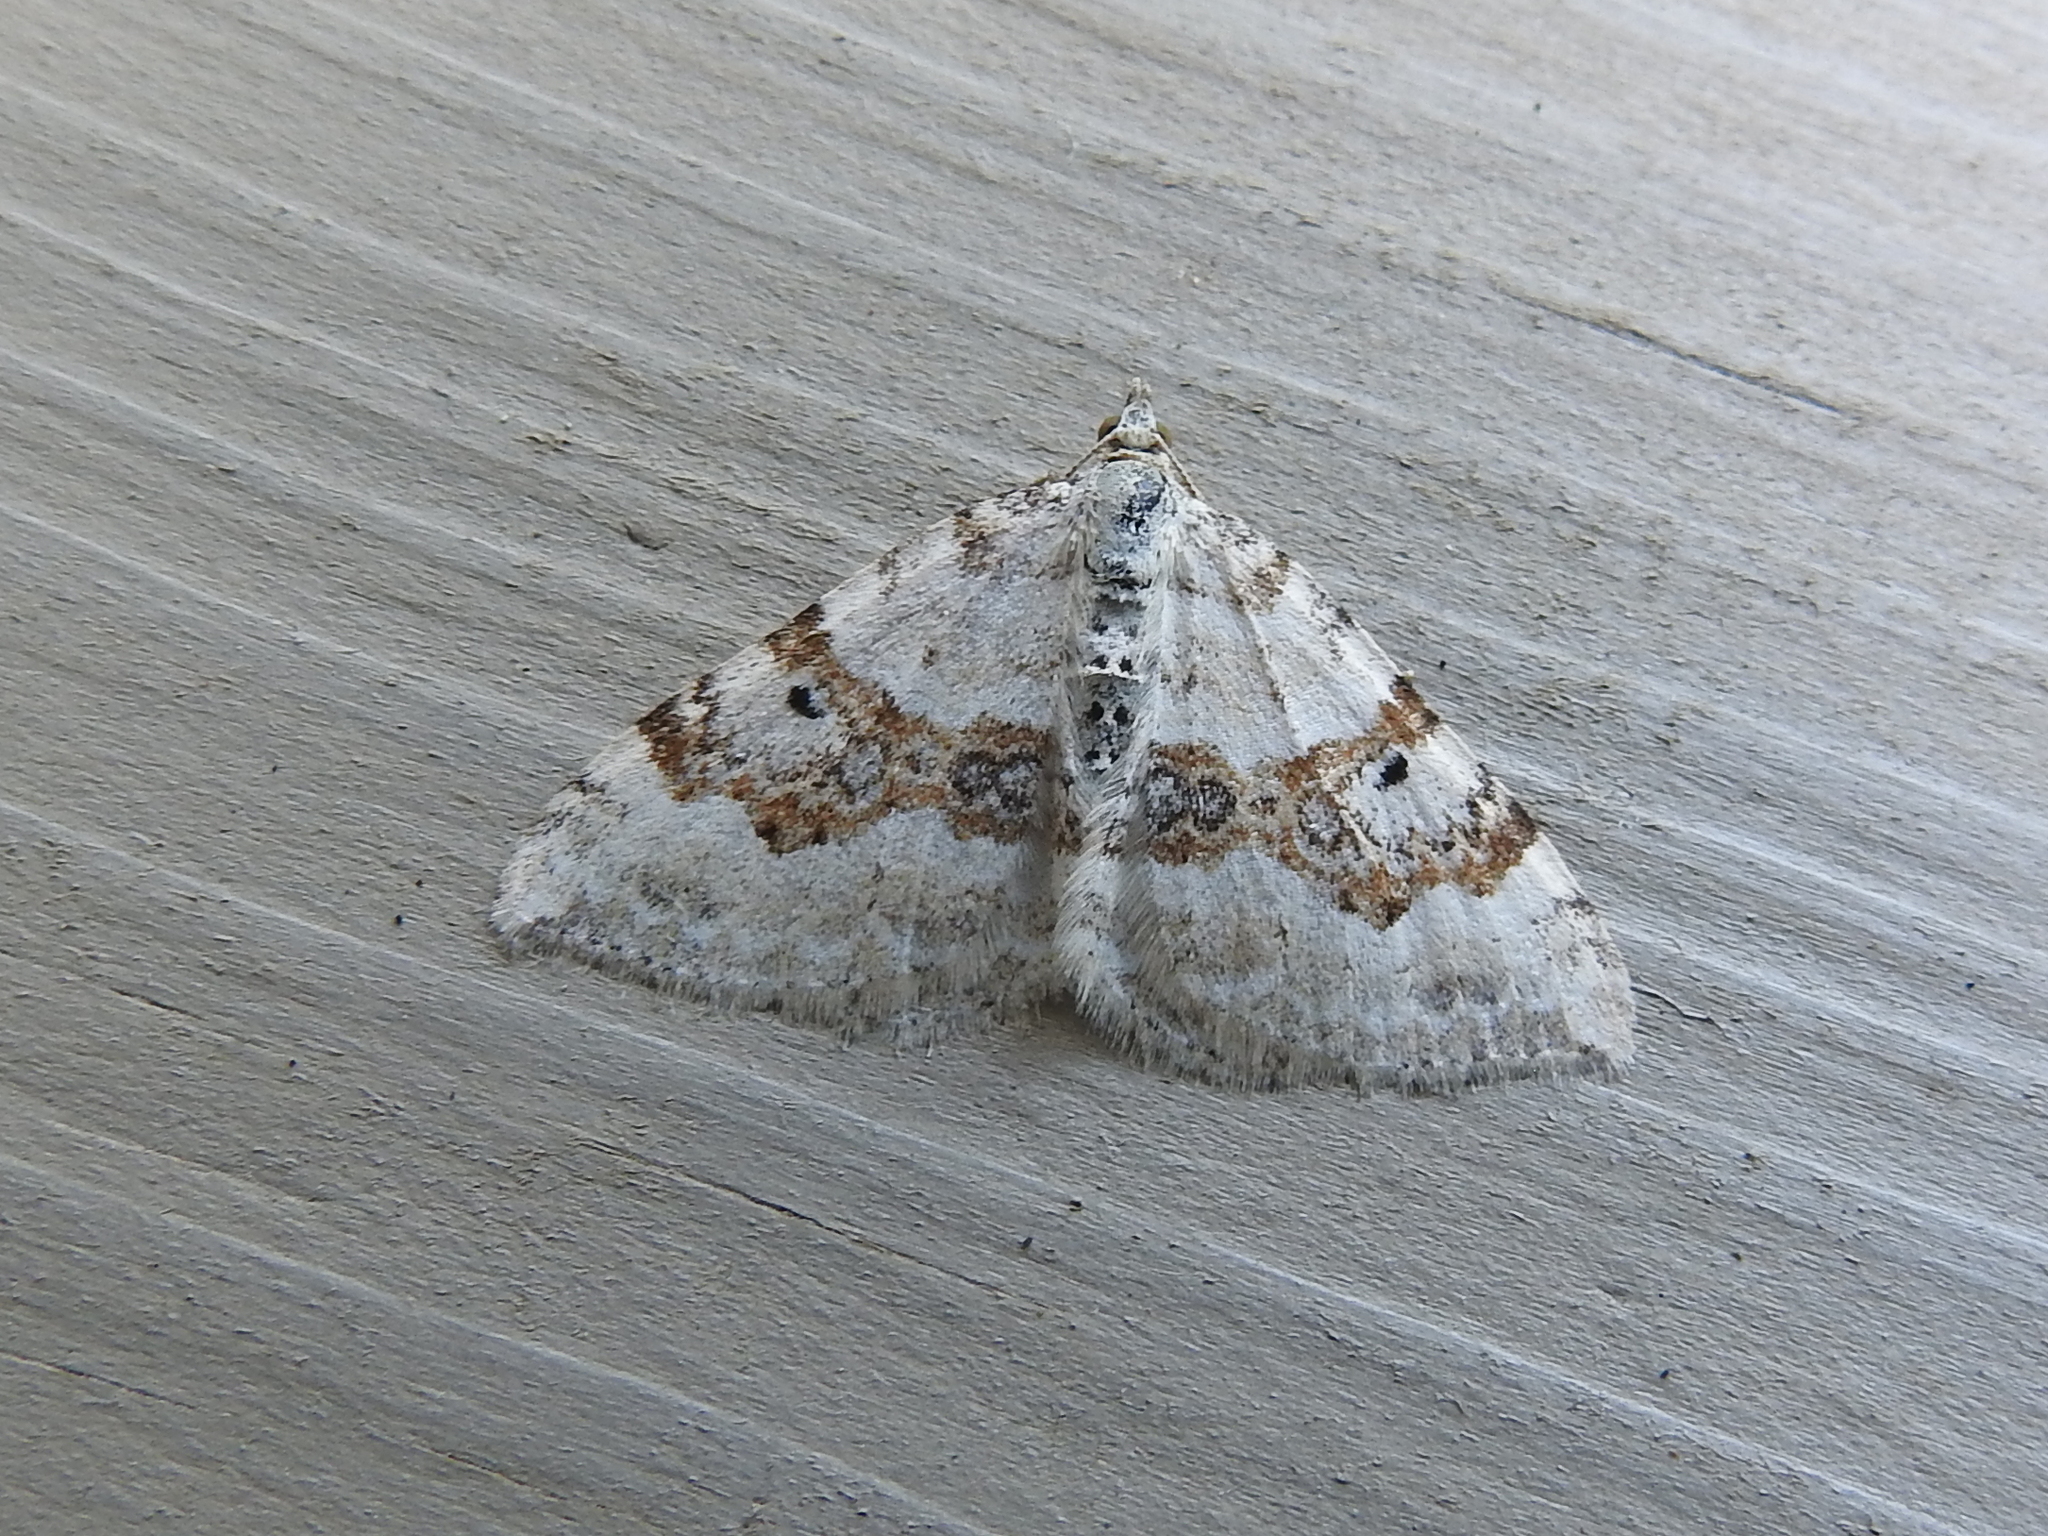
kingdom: Animalia
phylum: Arthropoda
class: Insecta
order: Lepidoptera
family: Geometridae
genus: Xanthorhoe
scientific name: Xanthorhoe montanata
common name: Silver-ground carpet
